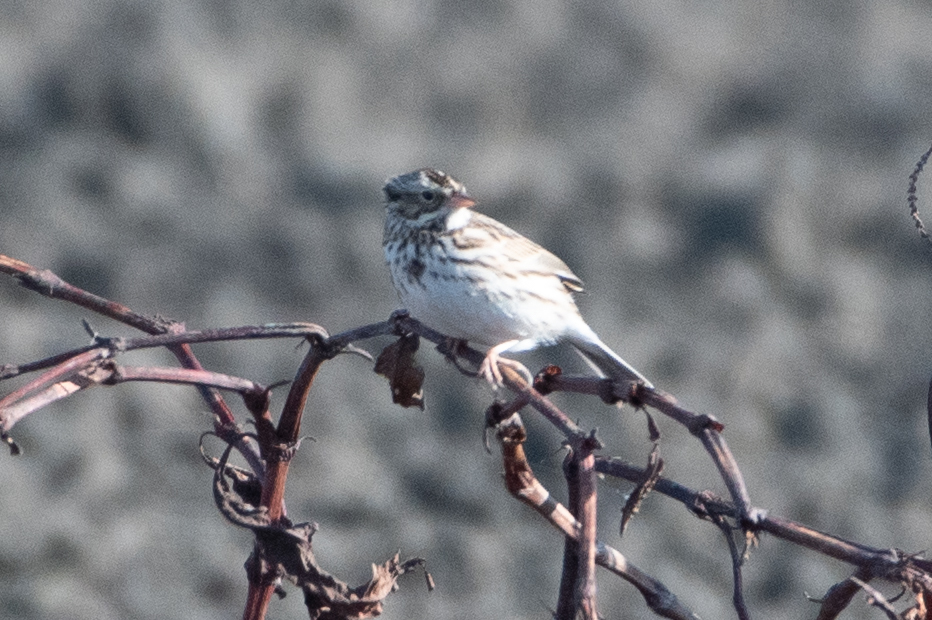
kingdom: Animalia
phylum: Chordata
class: Aves
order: Passeriformes
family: Passerellidae
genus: Passerculus
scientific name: Passerculus sandwichensis
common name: Savannah sparrow
